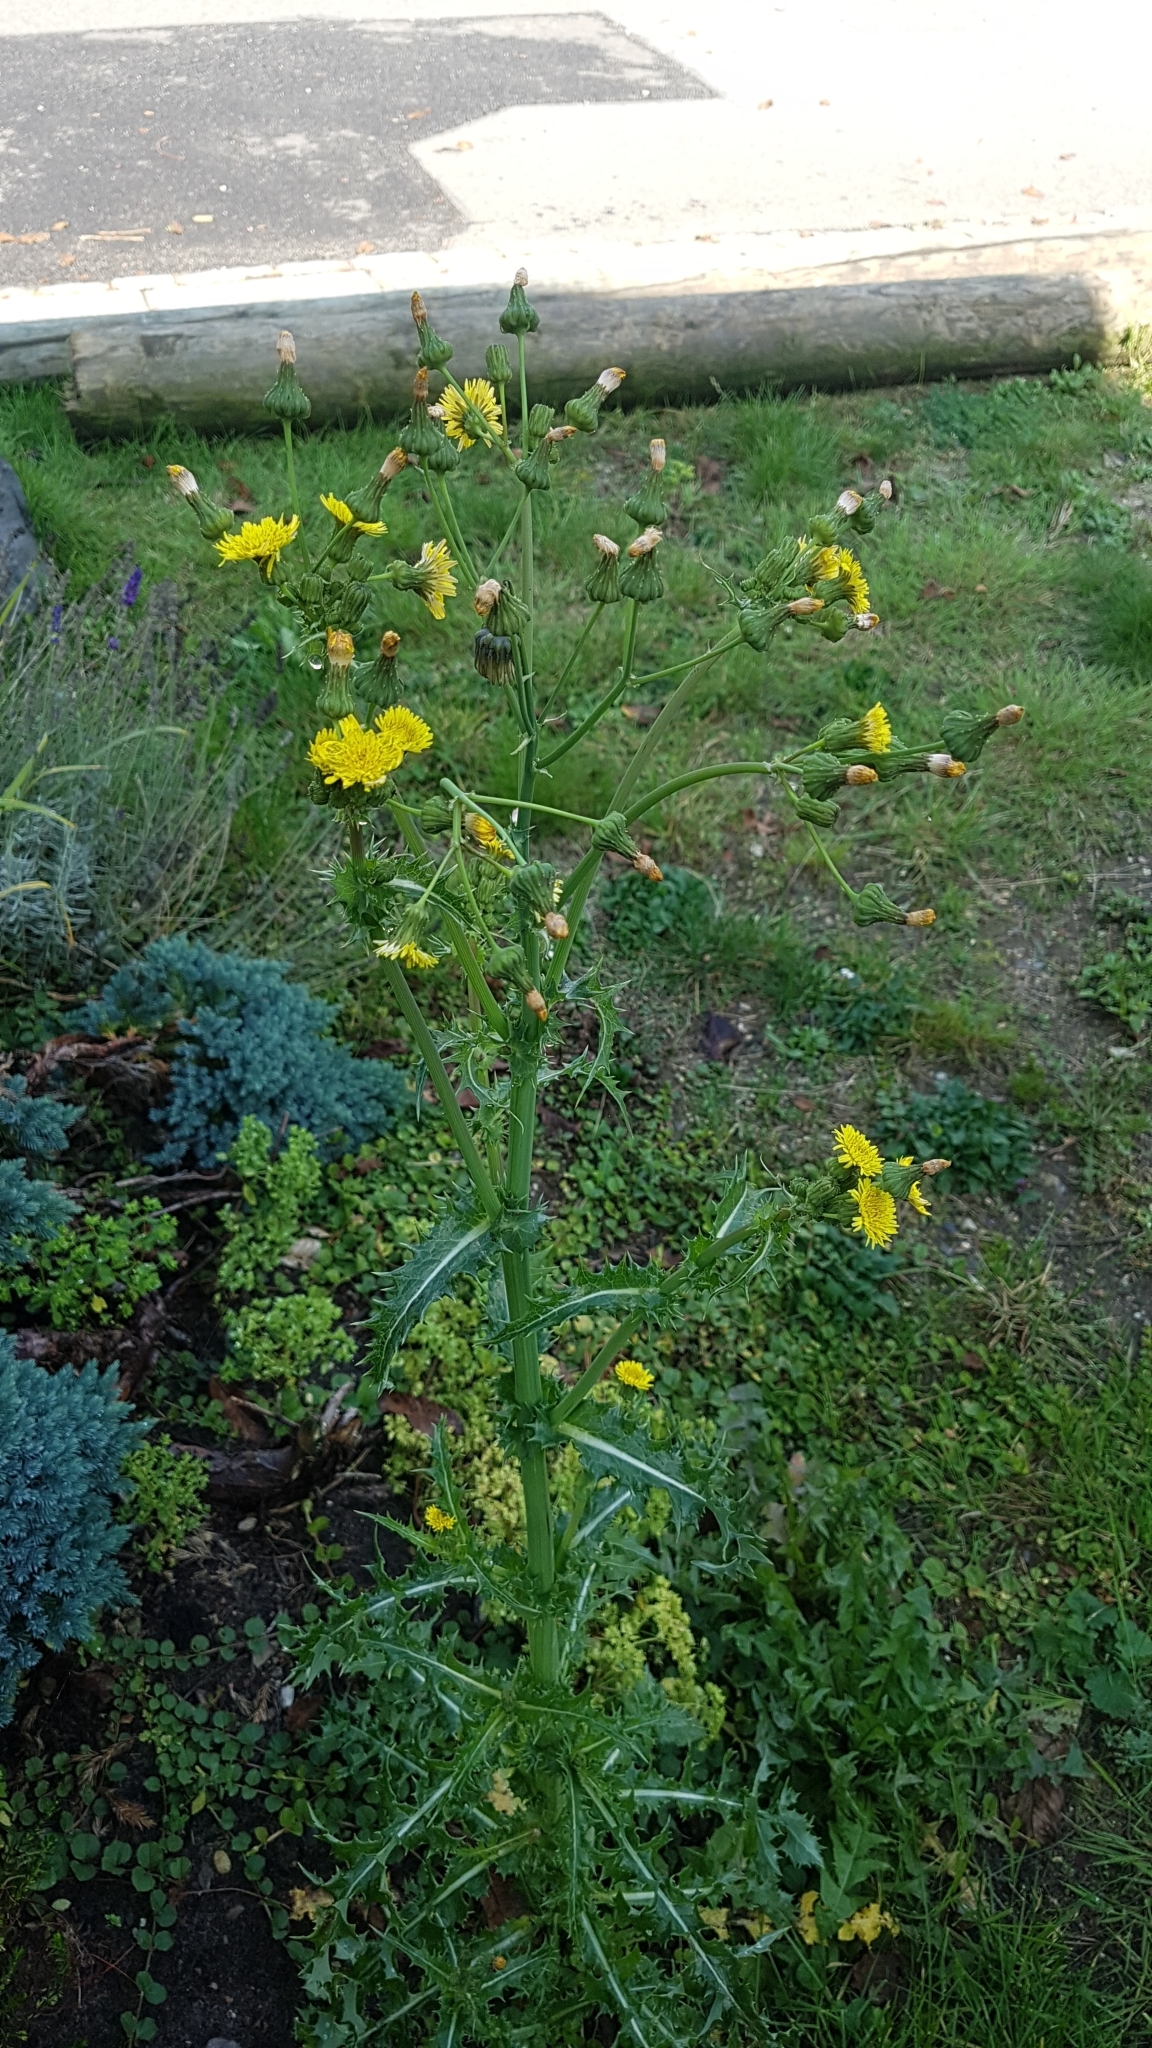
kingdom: Plantae
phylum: Tracheophyta
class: Magnoliopsida
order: Asterales
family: Asteraceae
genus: Sonchus
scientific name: Sonchus asper
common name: Prickly sow-thistle
